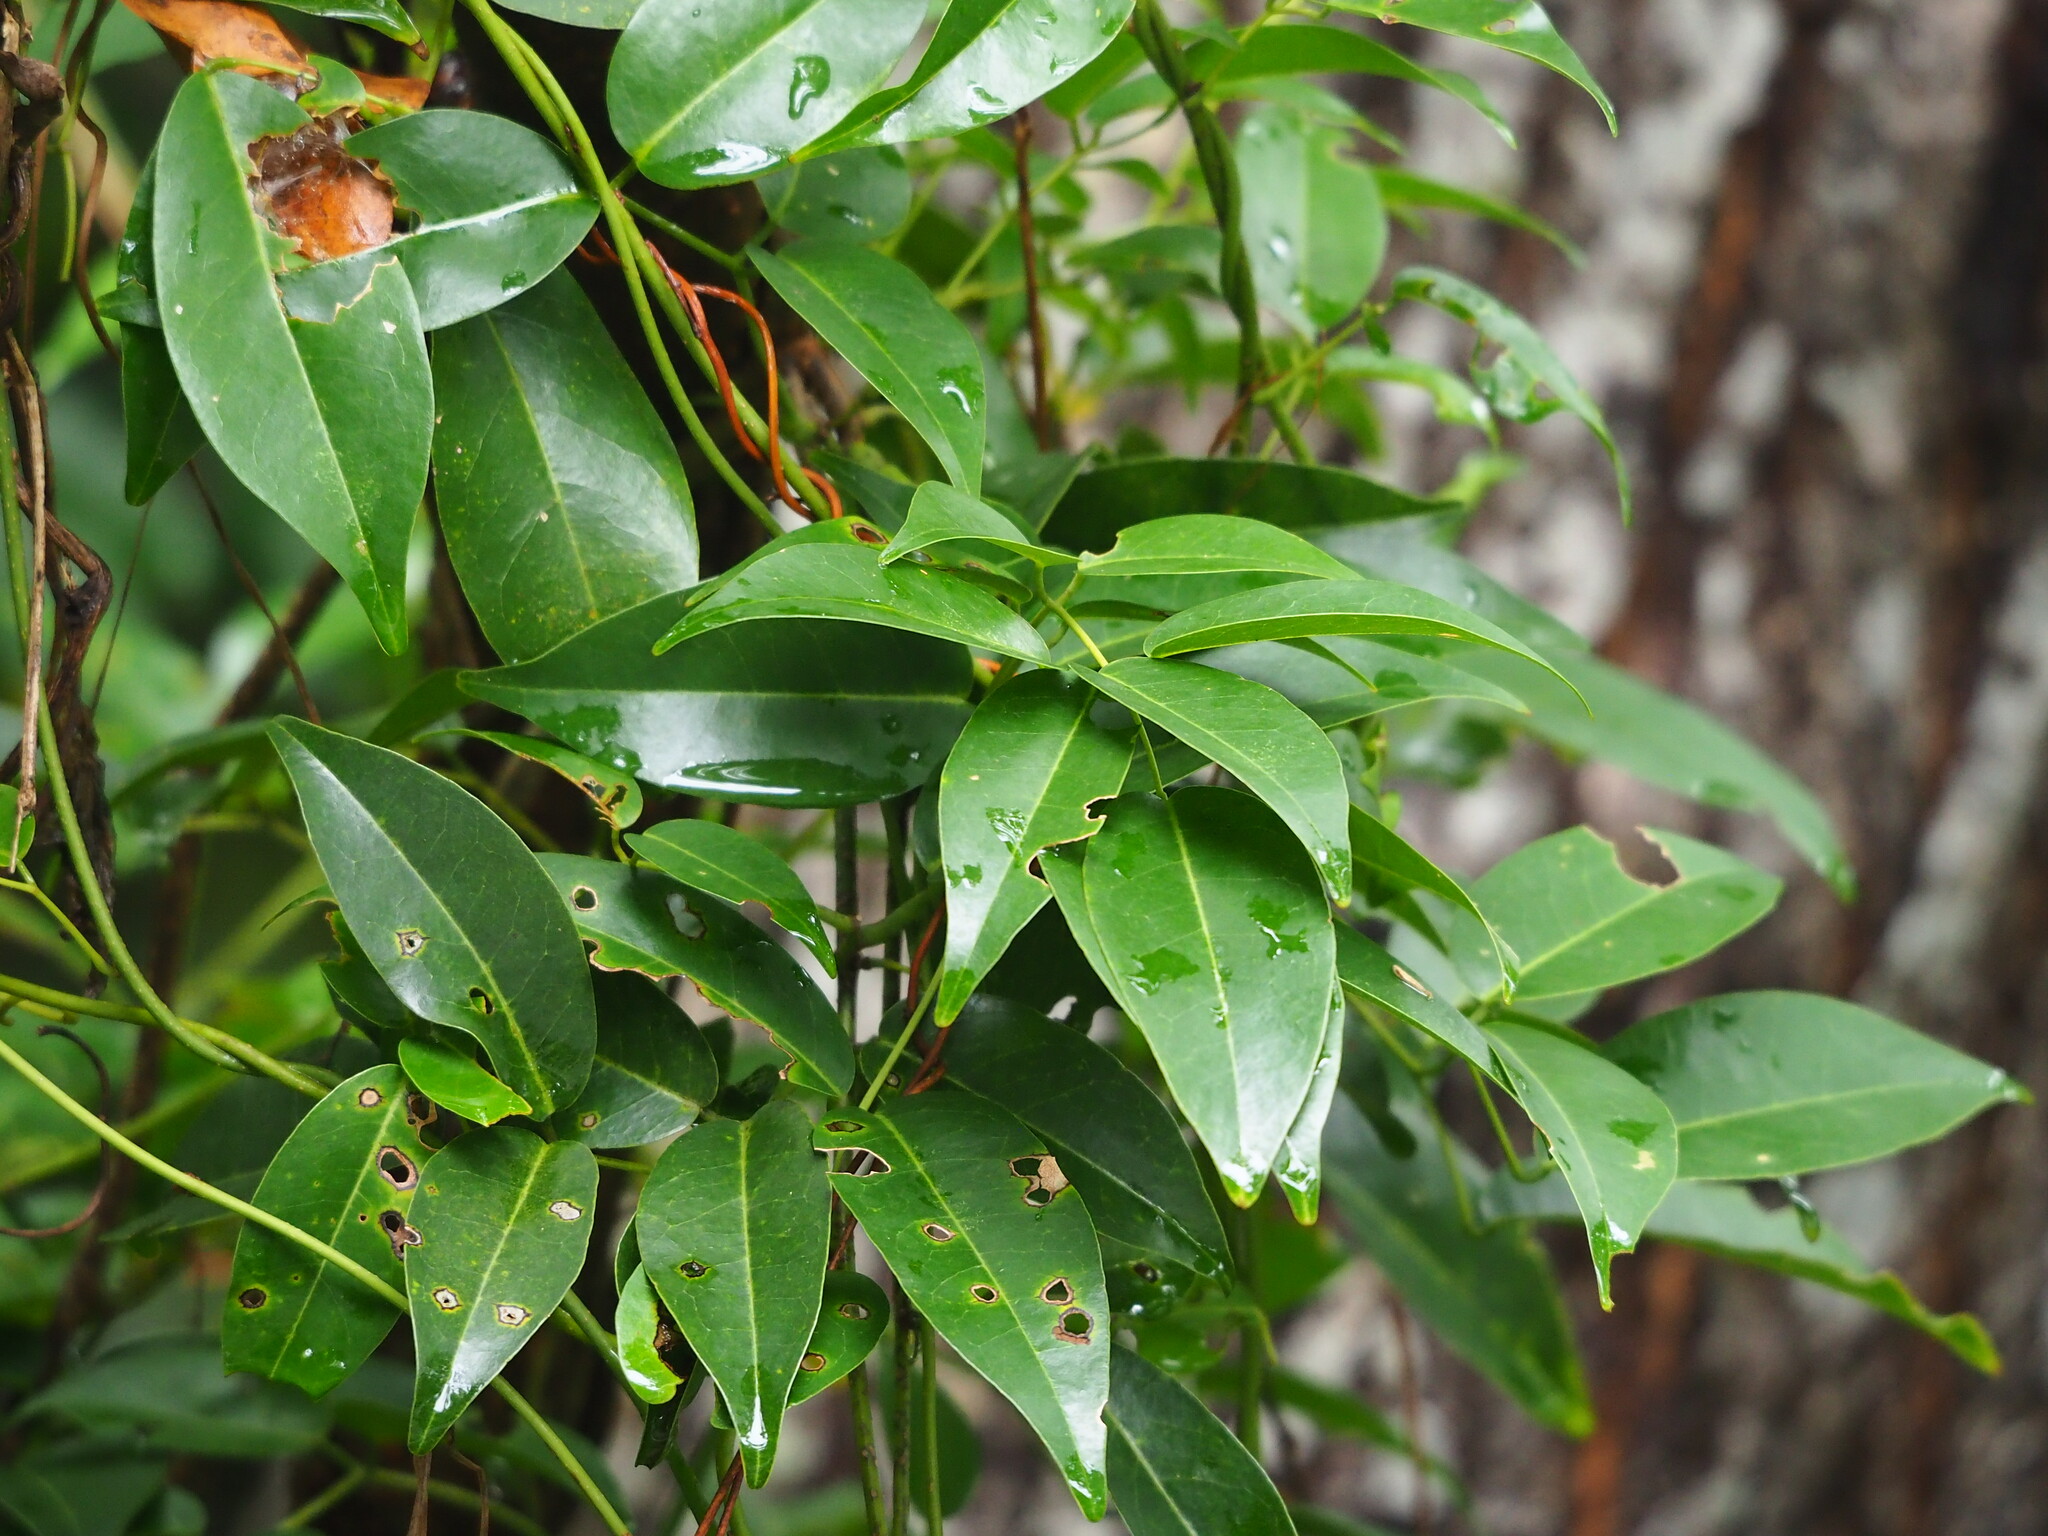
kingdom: Plantae
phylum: Tracheophyta
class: Magnoliopsida
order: Fabales
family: Fabaceae
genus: Derris
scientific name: Derris trifoliata
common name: Three-leaf derris
